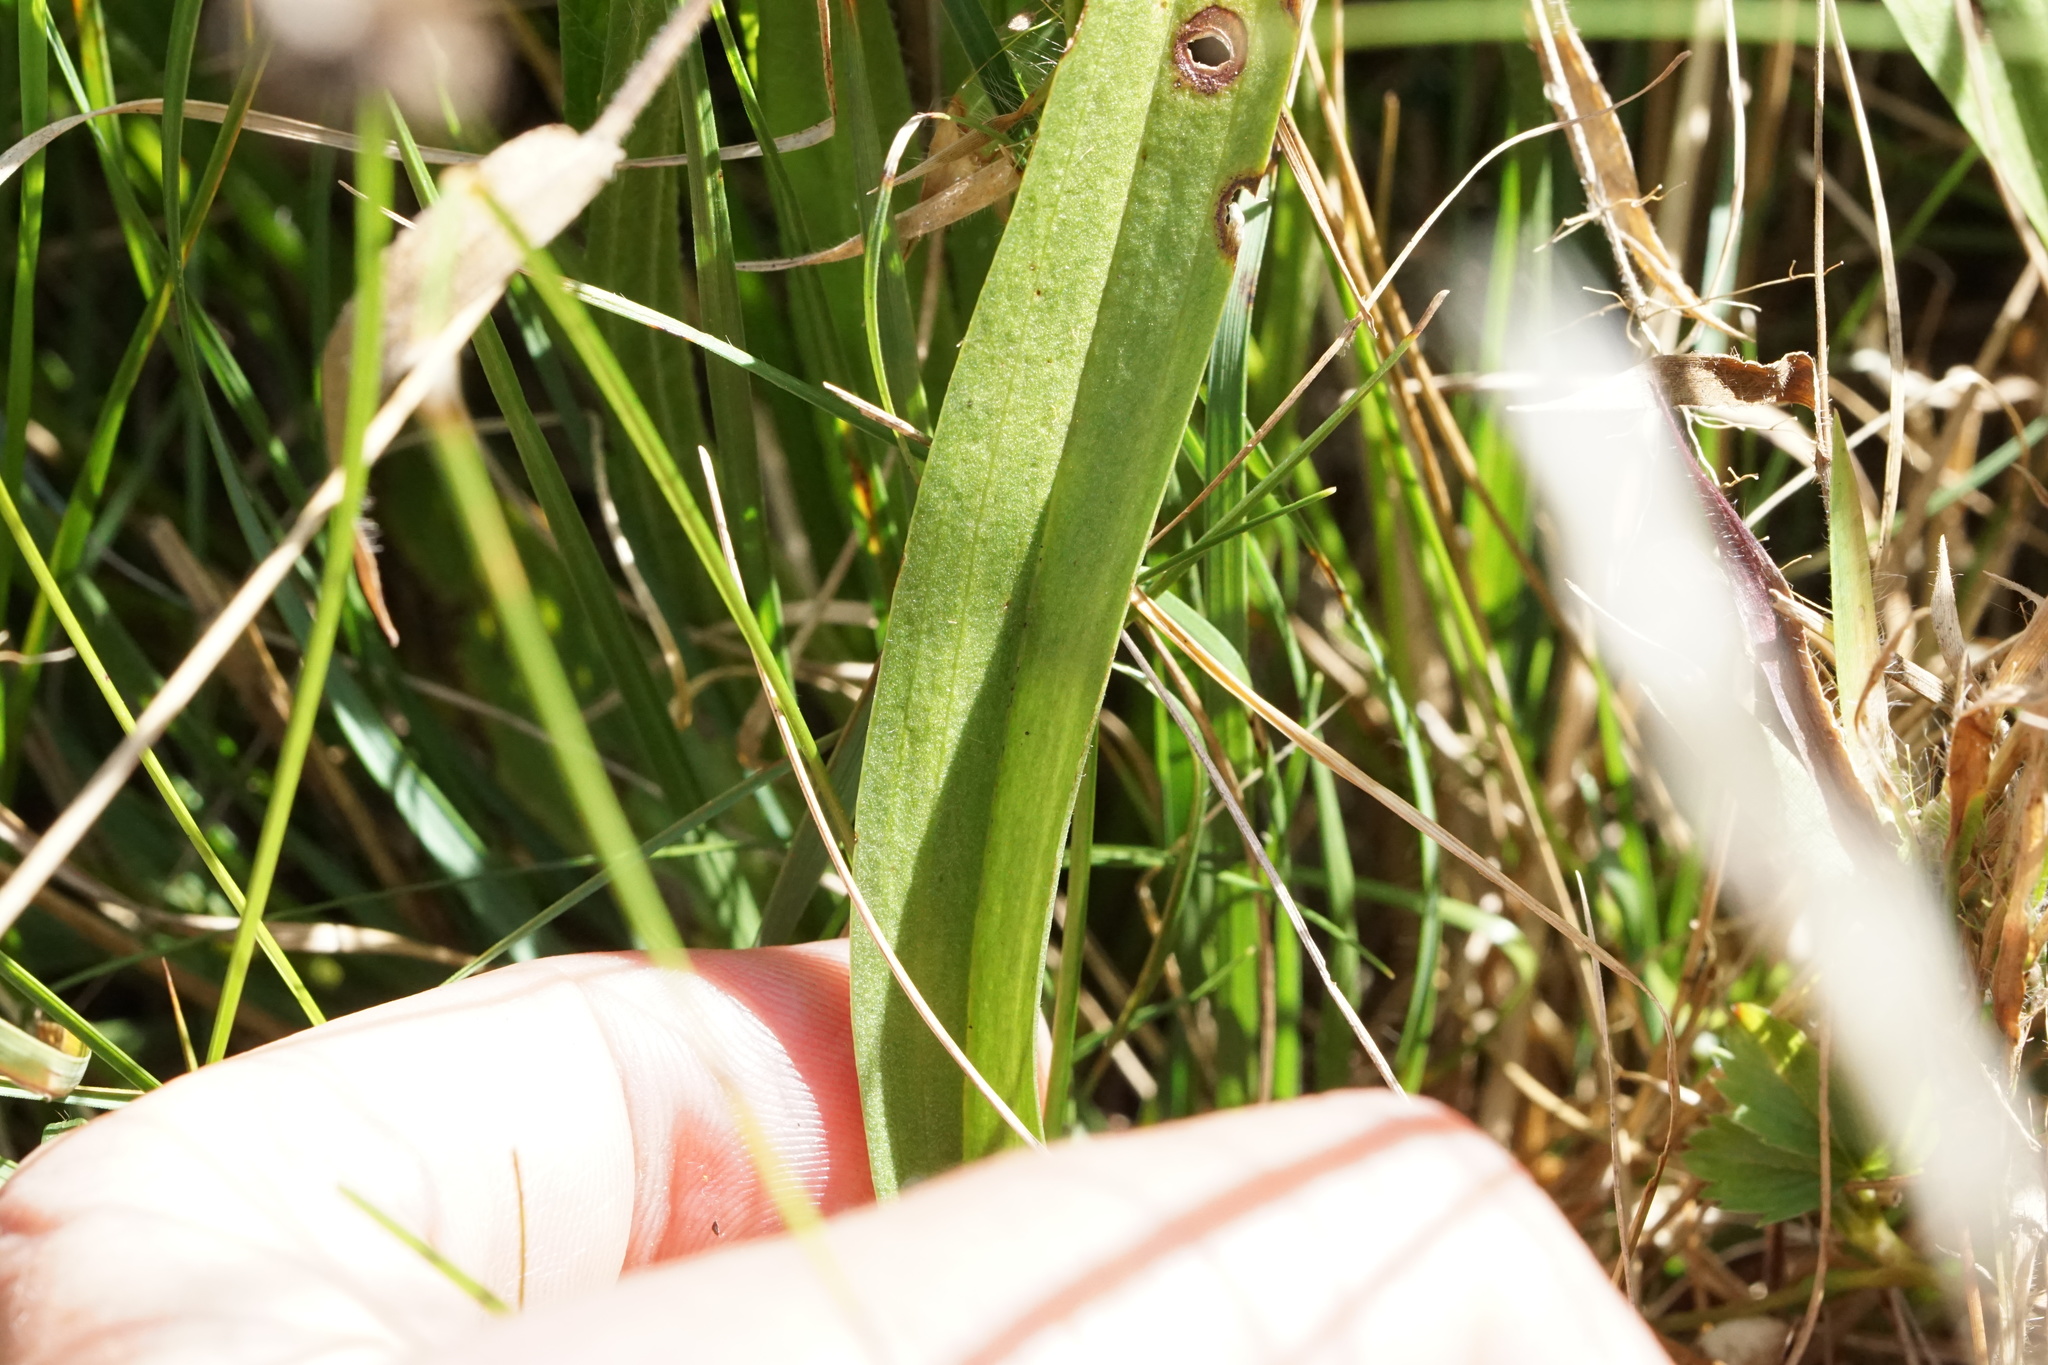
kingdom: Plantae
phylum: Tracheophyta
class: Liliopsida
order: Asparagales
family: Orchidaceae
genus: Spiranthes
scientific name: Spiranthes arcisepala
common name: Appalachian ladies'-tresses
